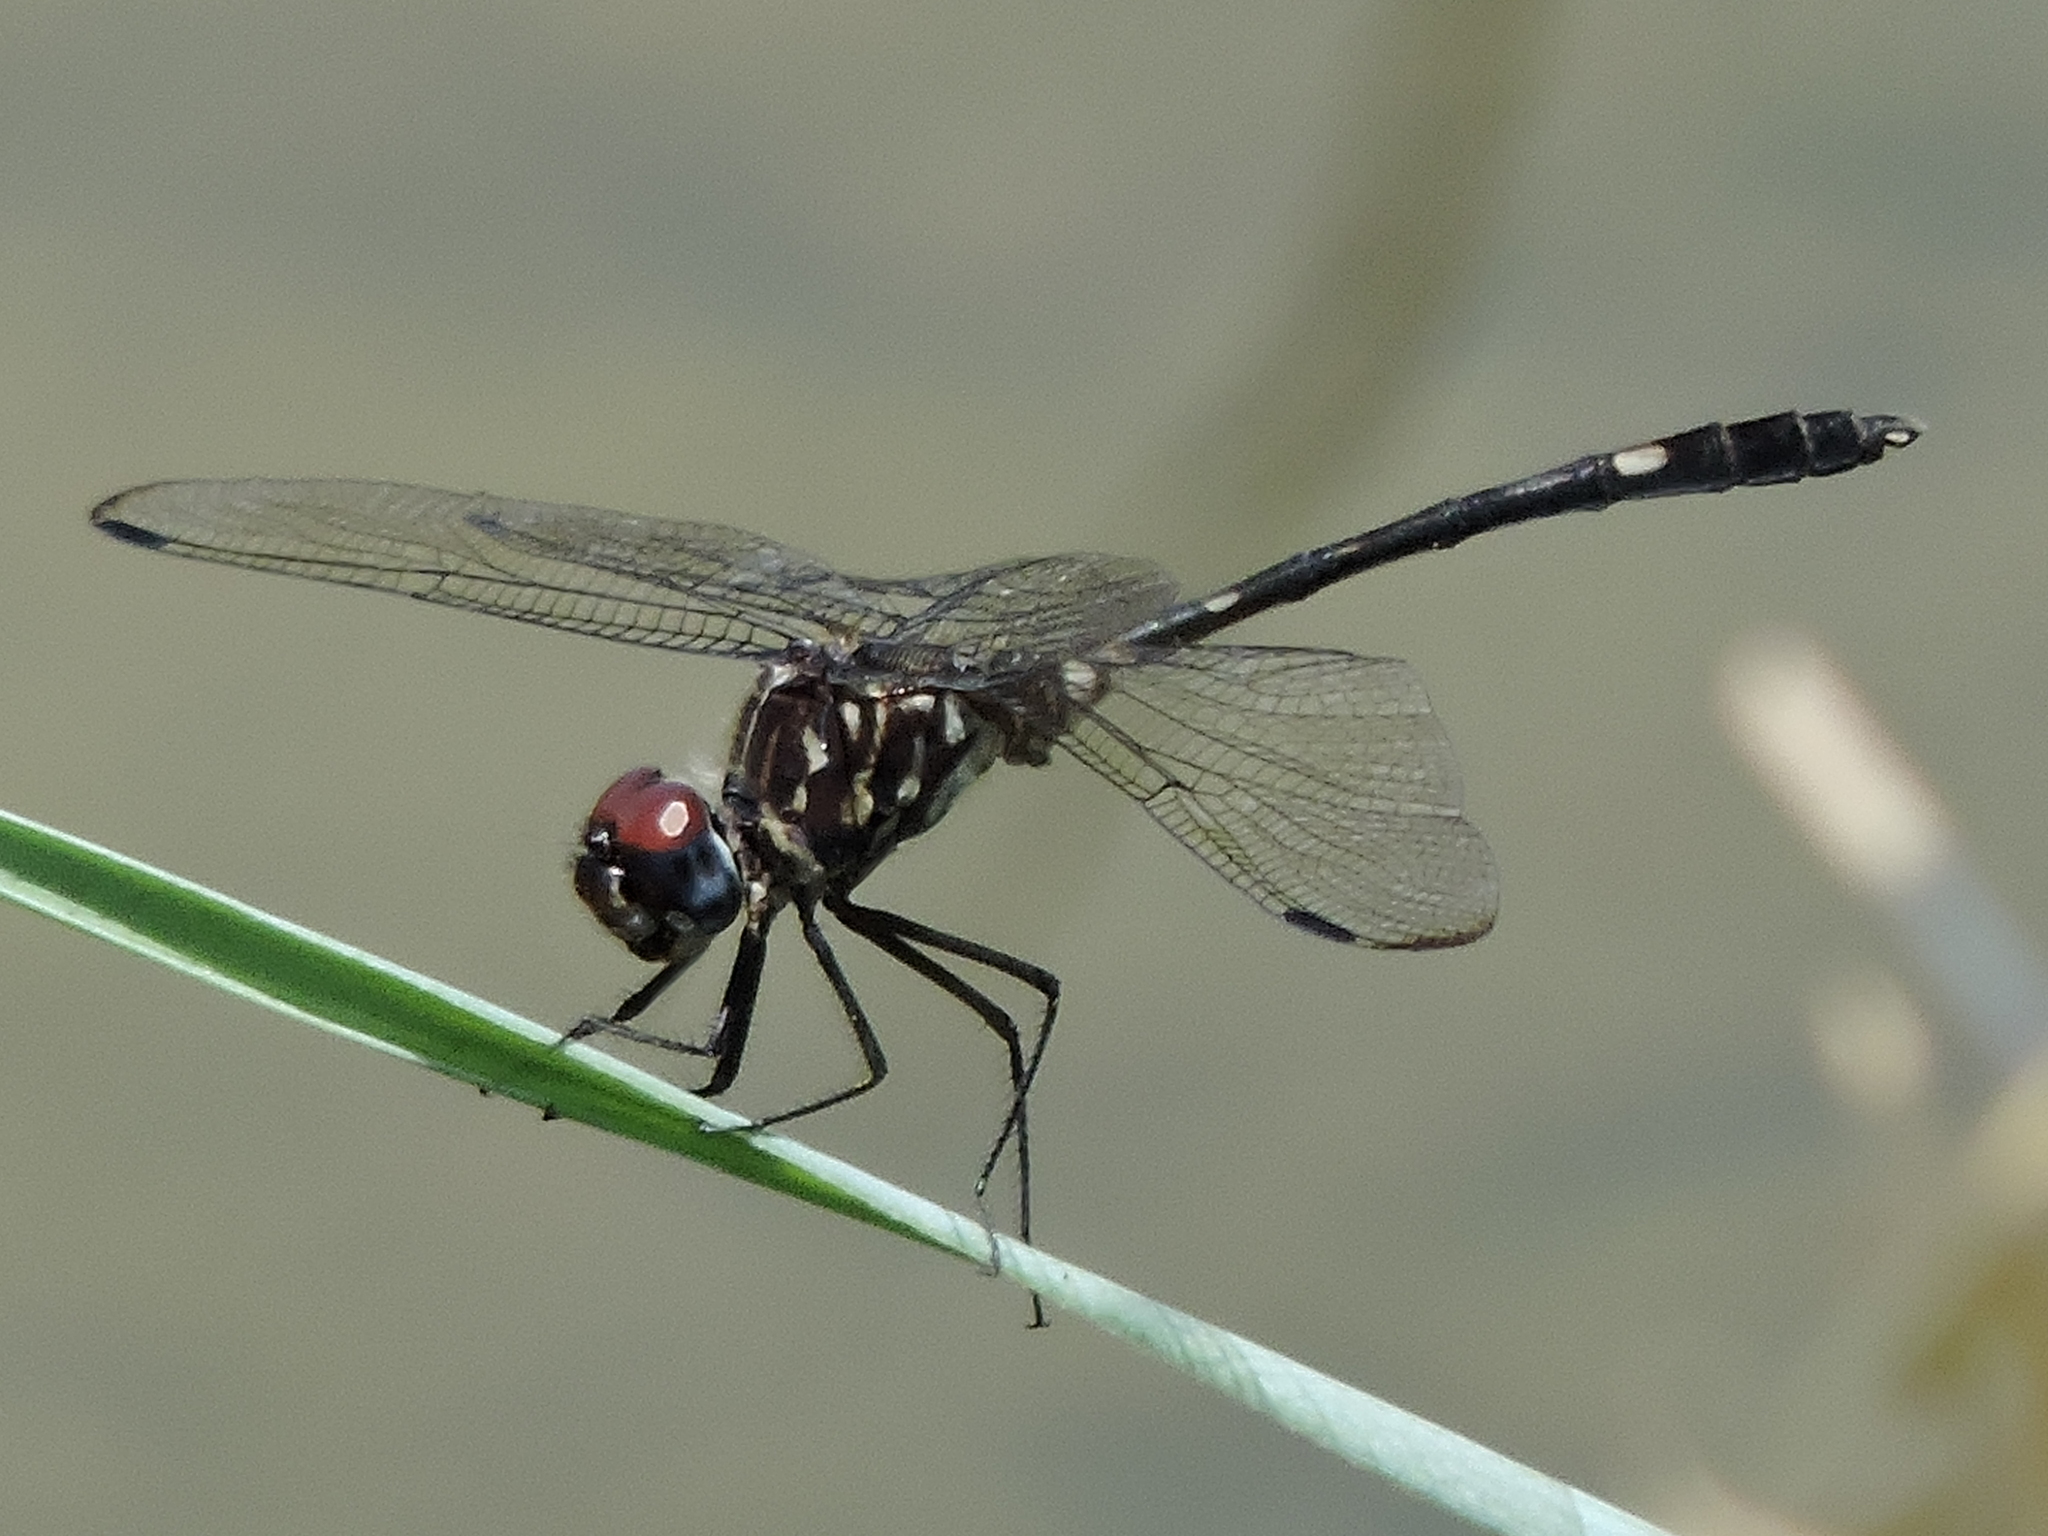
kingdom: Animalia
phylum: Arthropoda
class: Insecta
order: Odonata
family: Libellulidae
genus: Dythemis
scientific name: Dythemis velox
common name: Swift setwing
